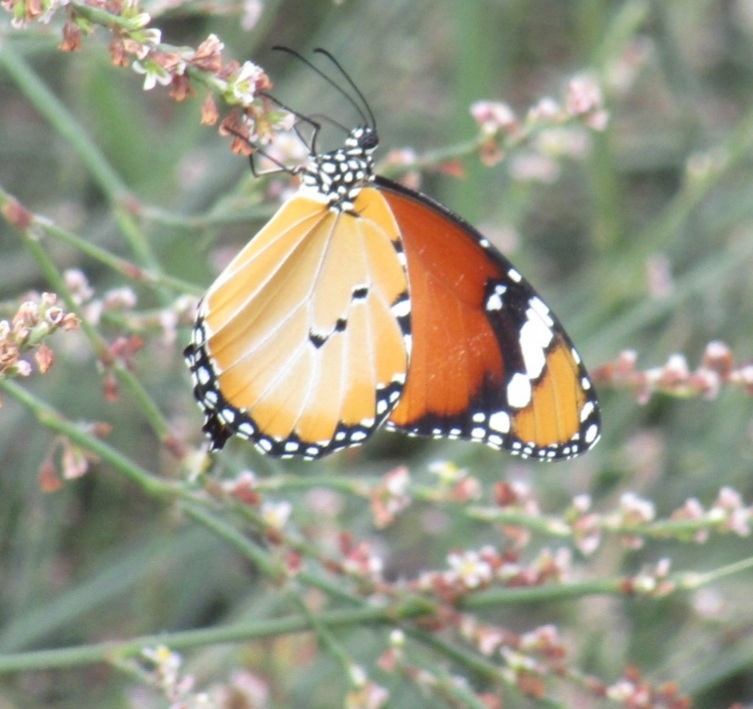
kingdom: Animalia
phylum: Arthropoda
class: Insecta
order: Lepidoptera
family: Nymphalidae
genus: Danaus
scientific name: Danaus chrysippus
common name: Plain tiger
